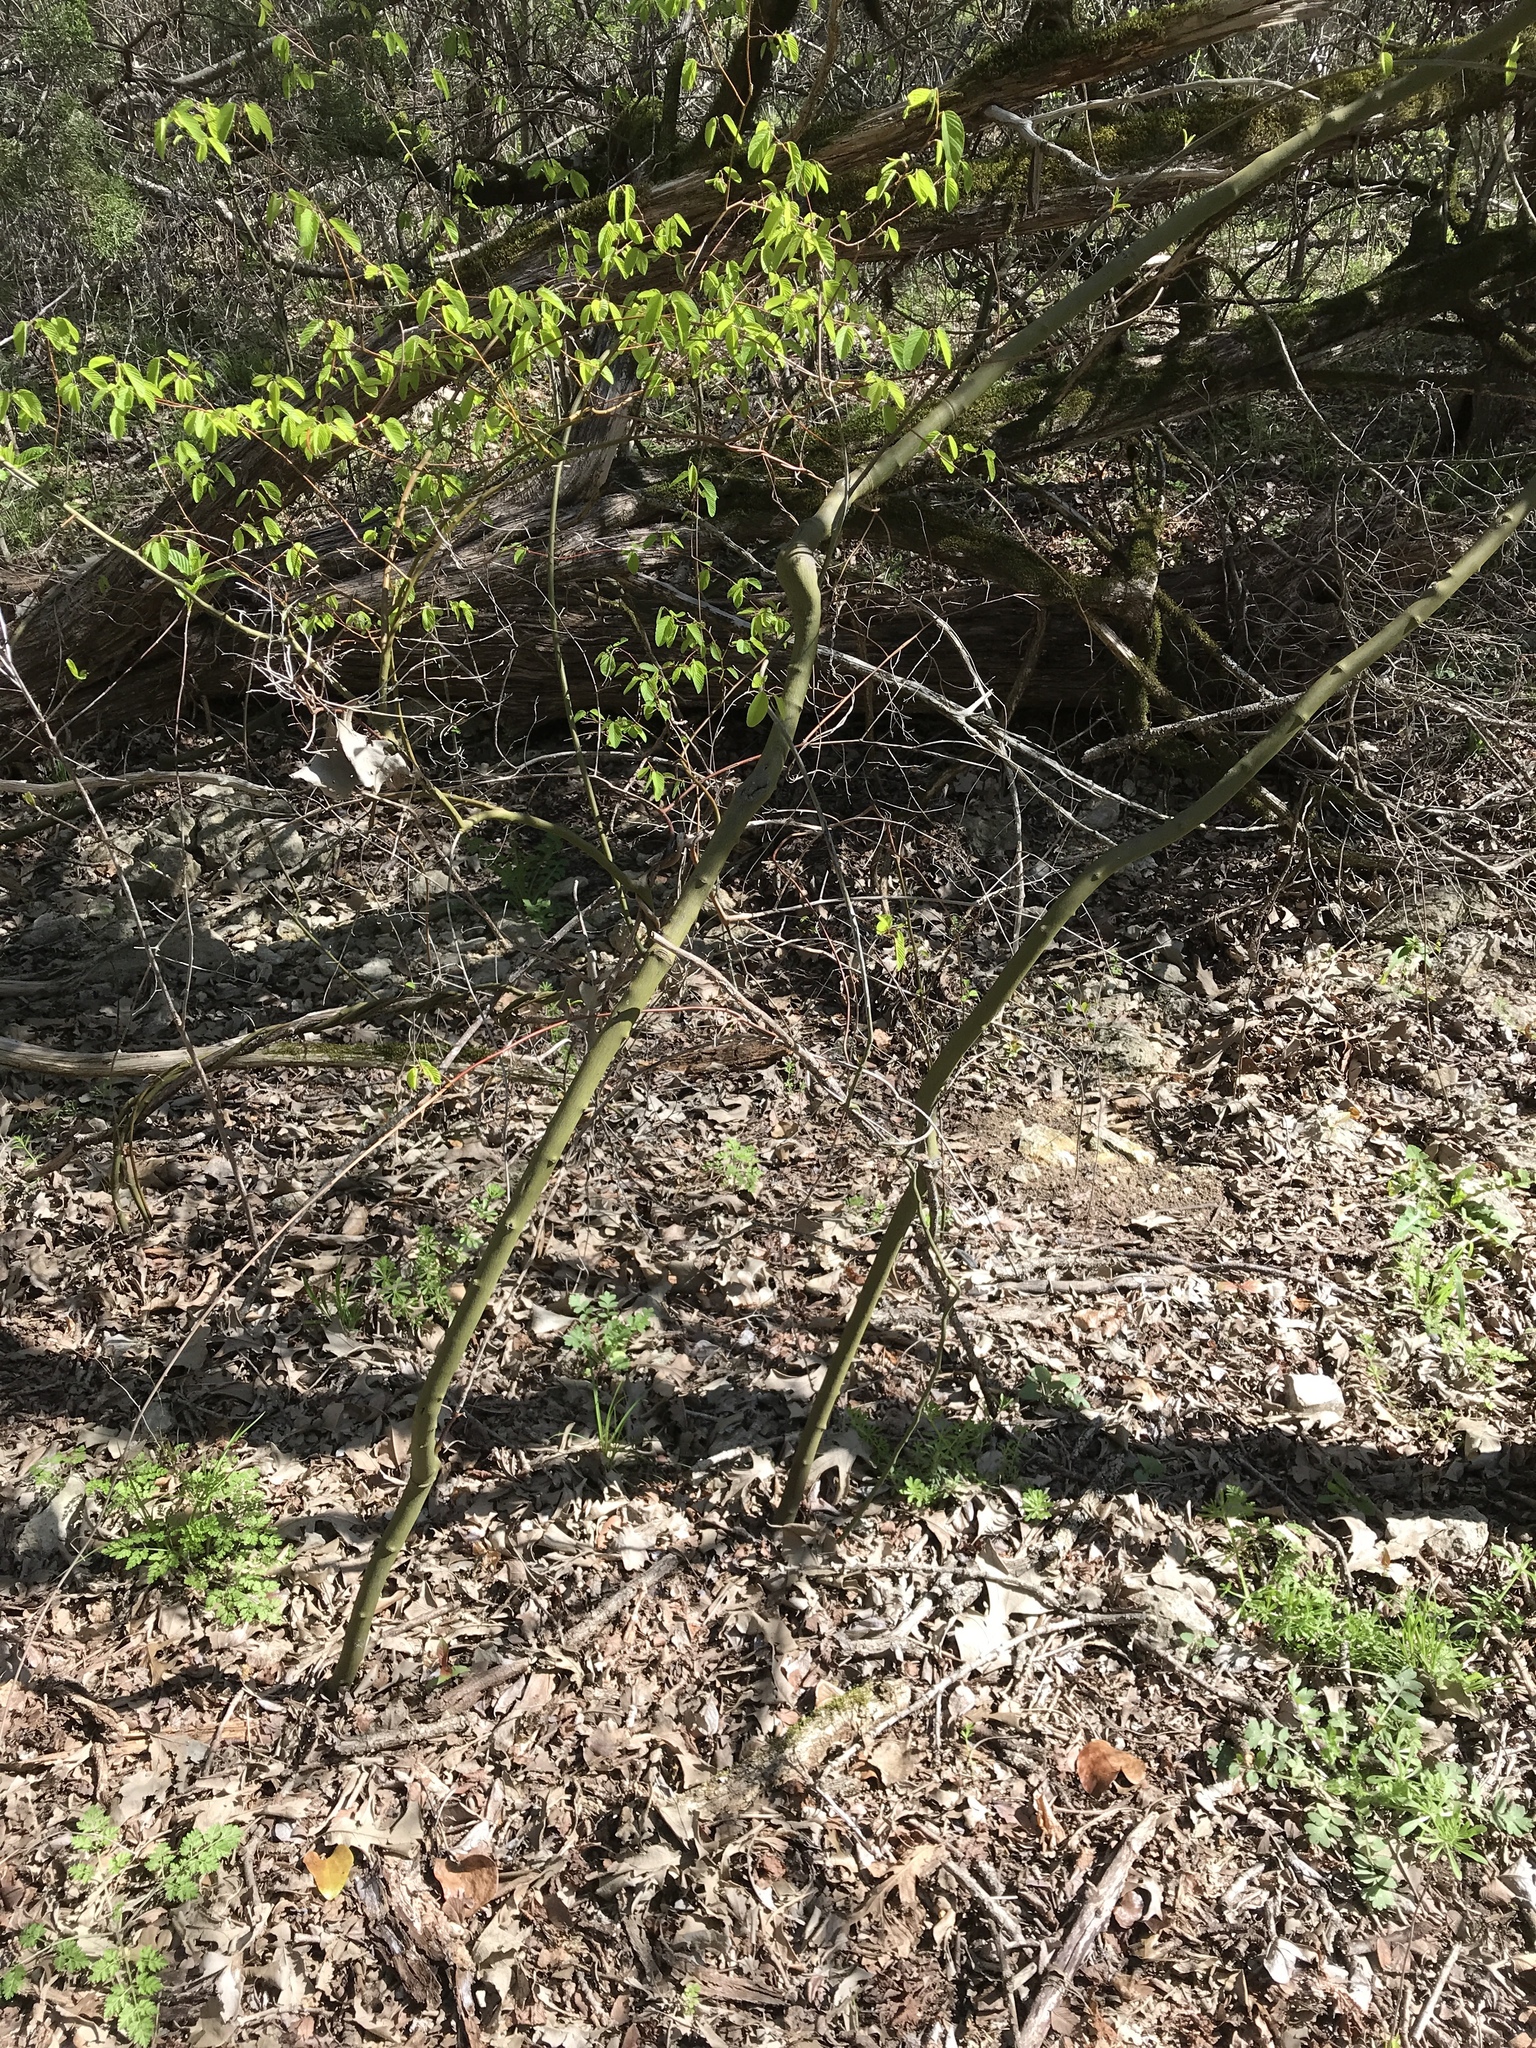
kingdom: Plantae
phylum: Tracheophyta
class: Magnoliopsida
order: Rosales
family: Rhamnaceae
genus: Berchemia
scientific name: Berchemia scandens
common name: Supplejack
